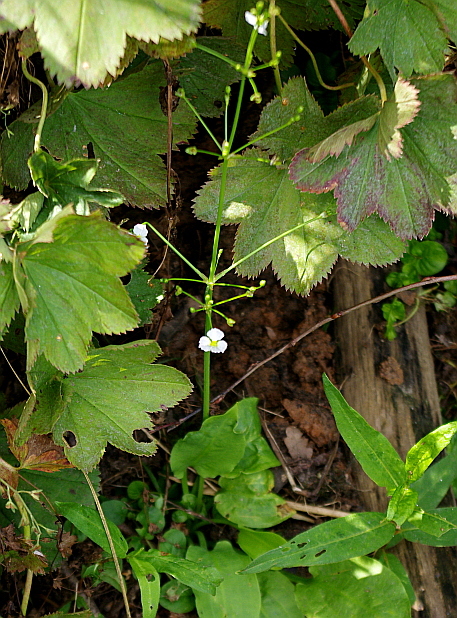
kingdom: Plantae
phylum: Tracheophyta
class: Liliopsida
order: Alismatales
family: Alismataceae
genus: Alisma
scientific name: Alisma plantago-aquatica
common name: Water-plantain
